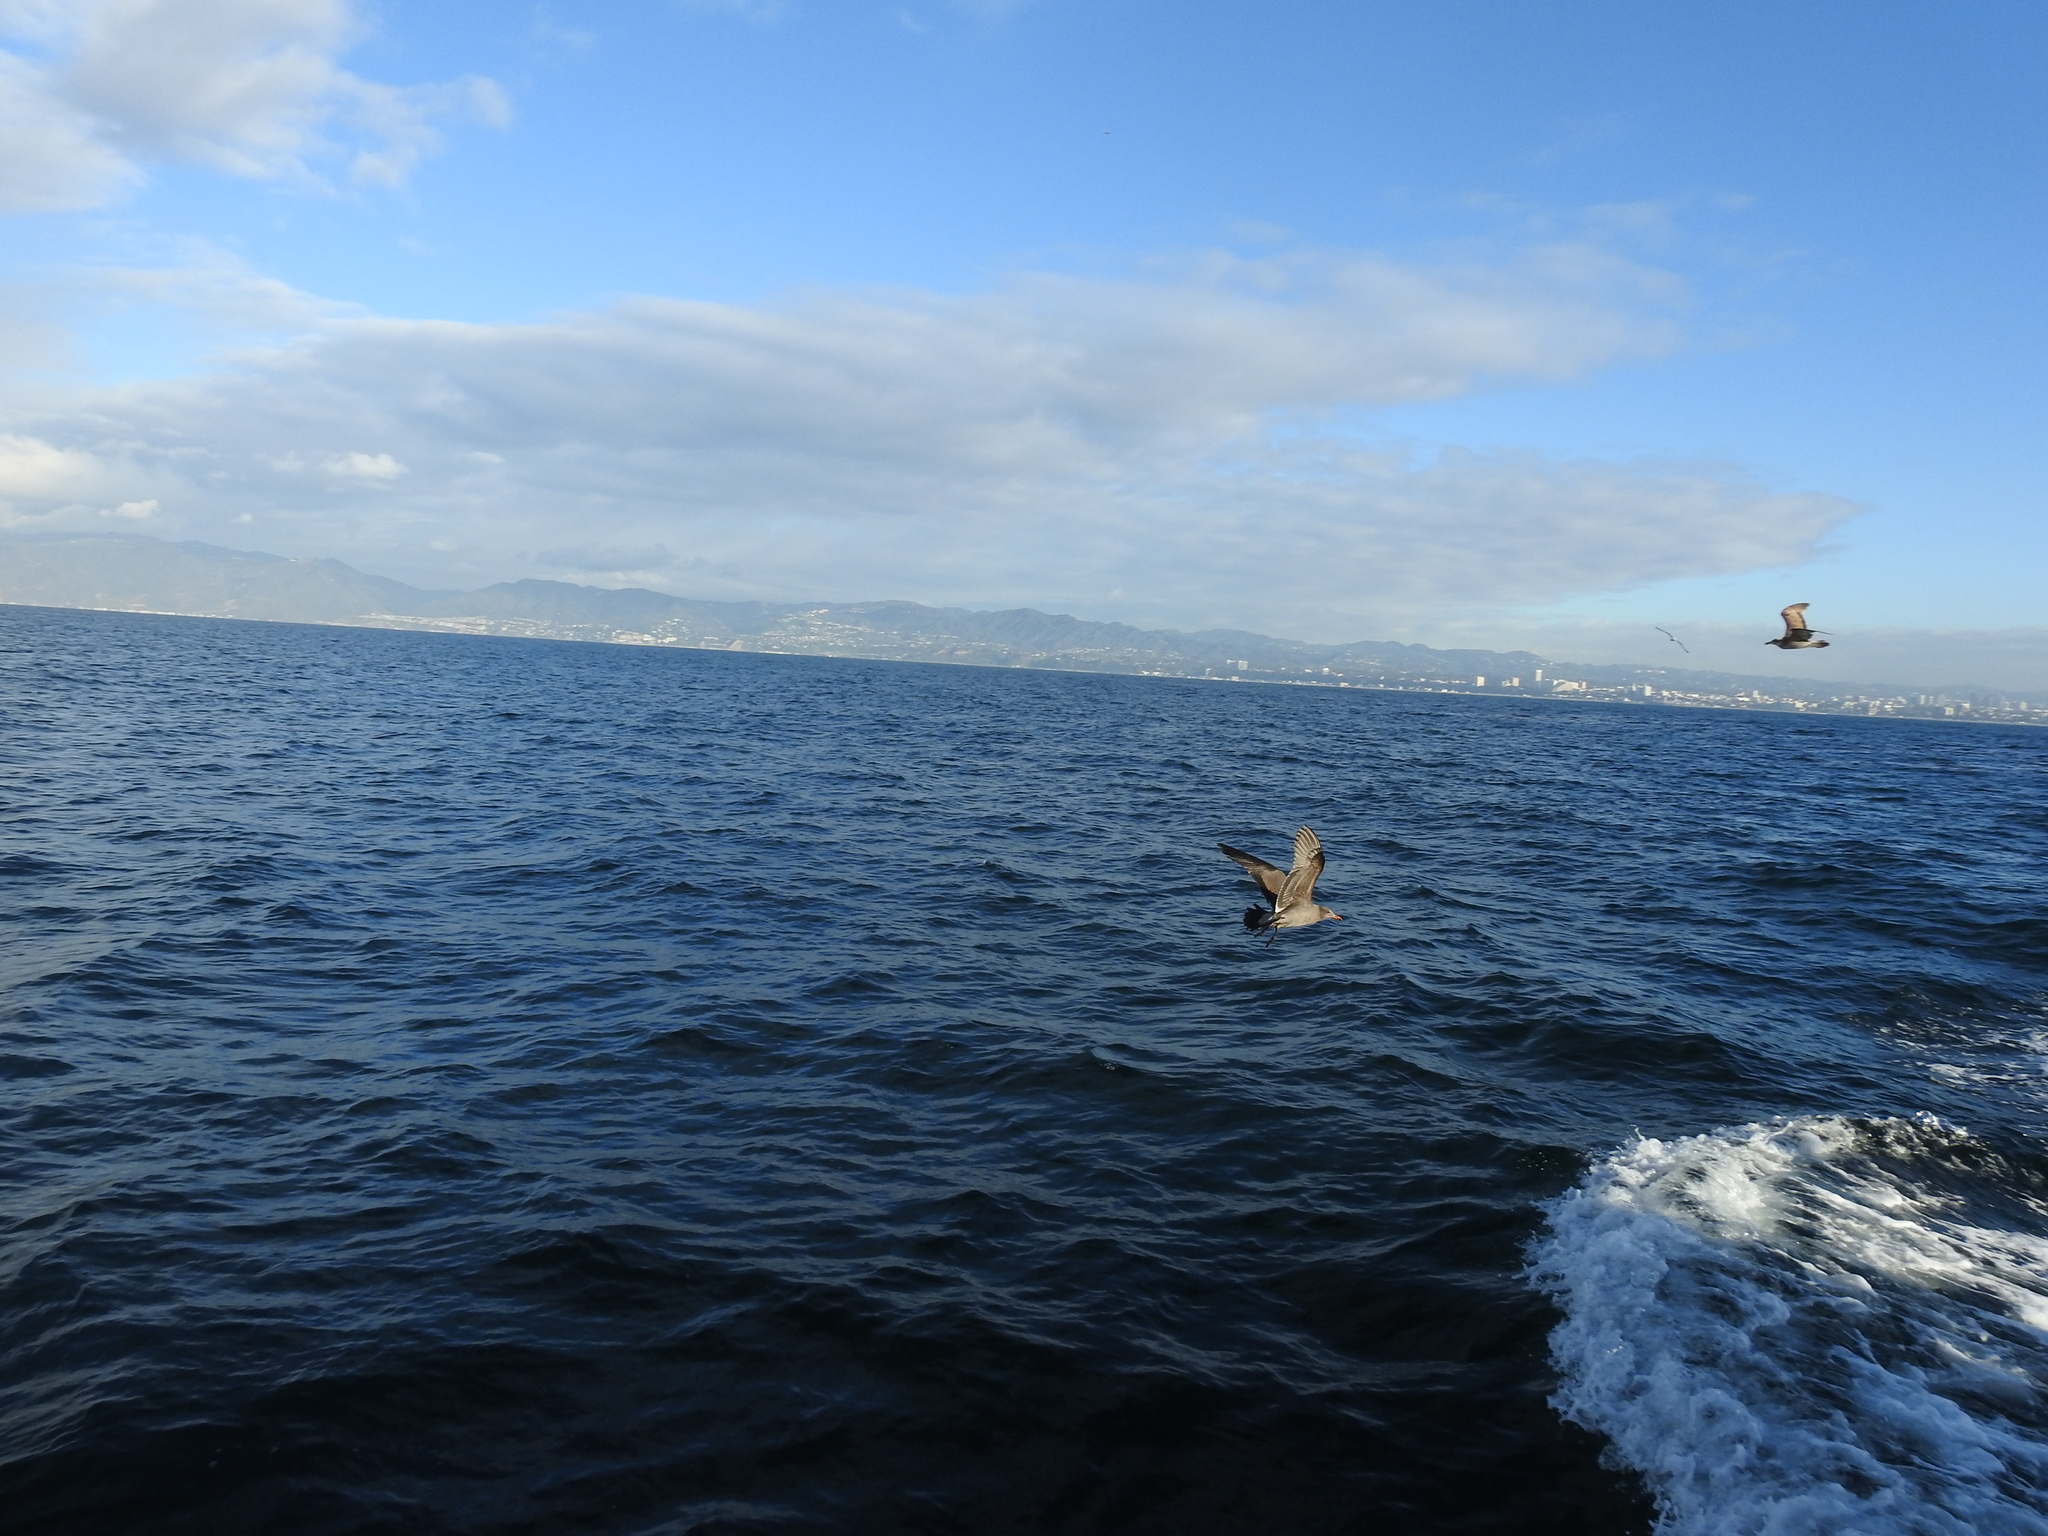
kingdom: Animalia
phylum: Chordata
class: Aves
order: Charadriiformes
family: Laridae
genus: Larus
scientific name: Larus heermanni
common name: Heermann's gull
